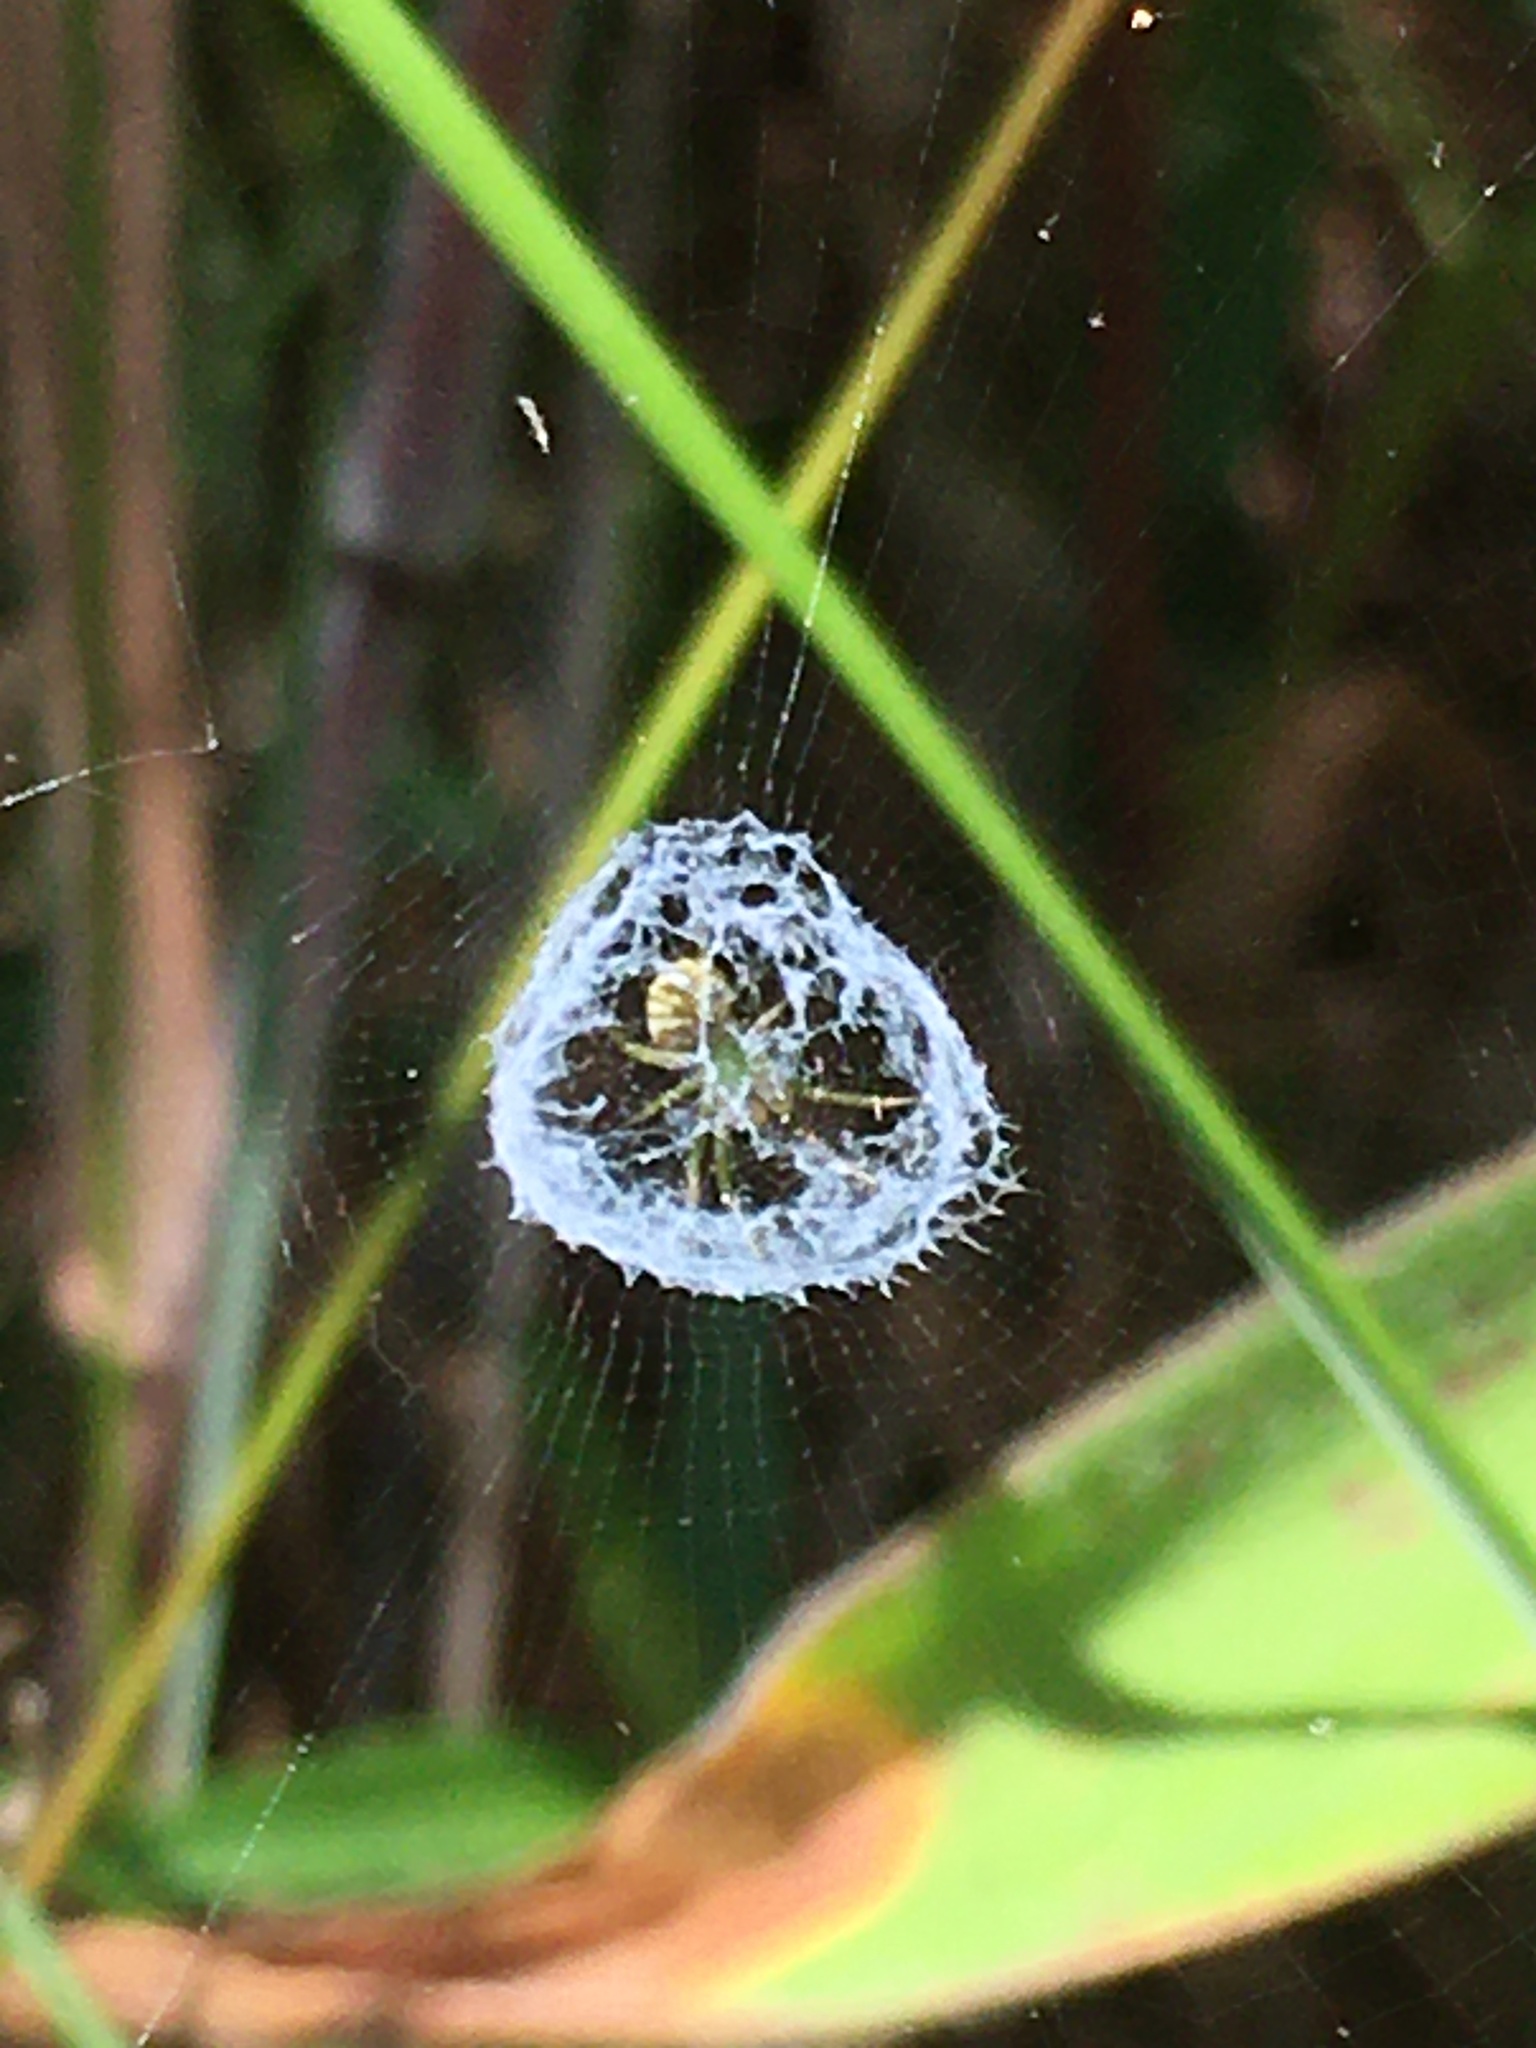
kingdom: Animalia
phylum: Arthropoda
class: Arachnida
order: Araneae
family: Araneidae
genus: Mangora
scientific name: Mangora gibberosa
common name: Lined orbweaver
